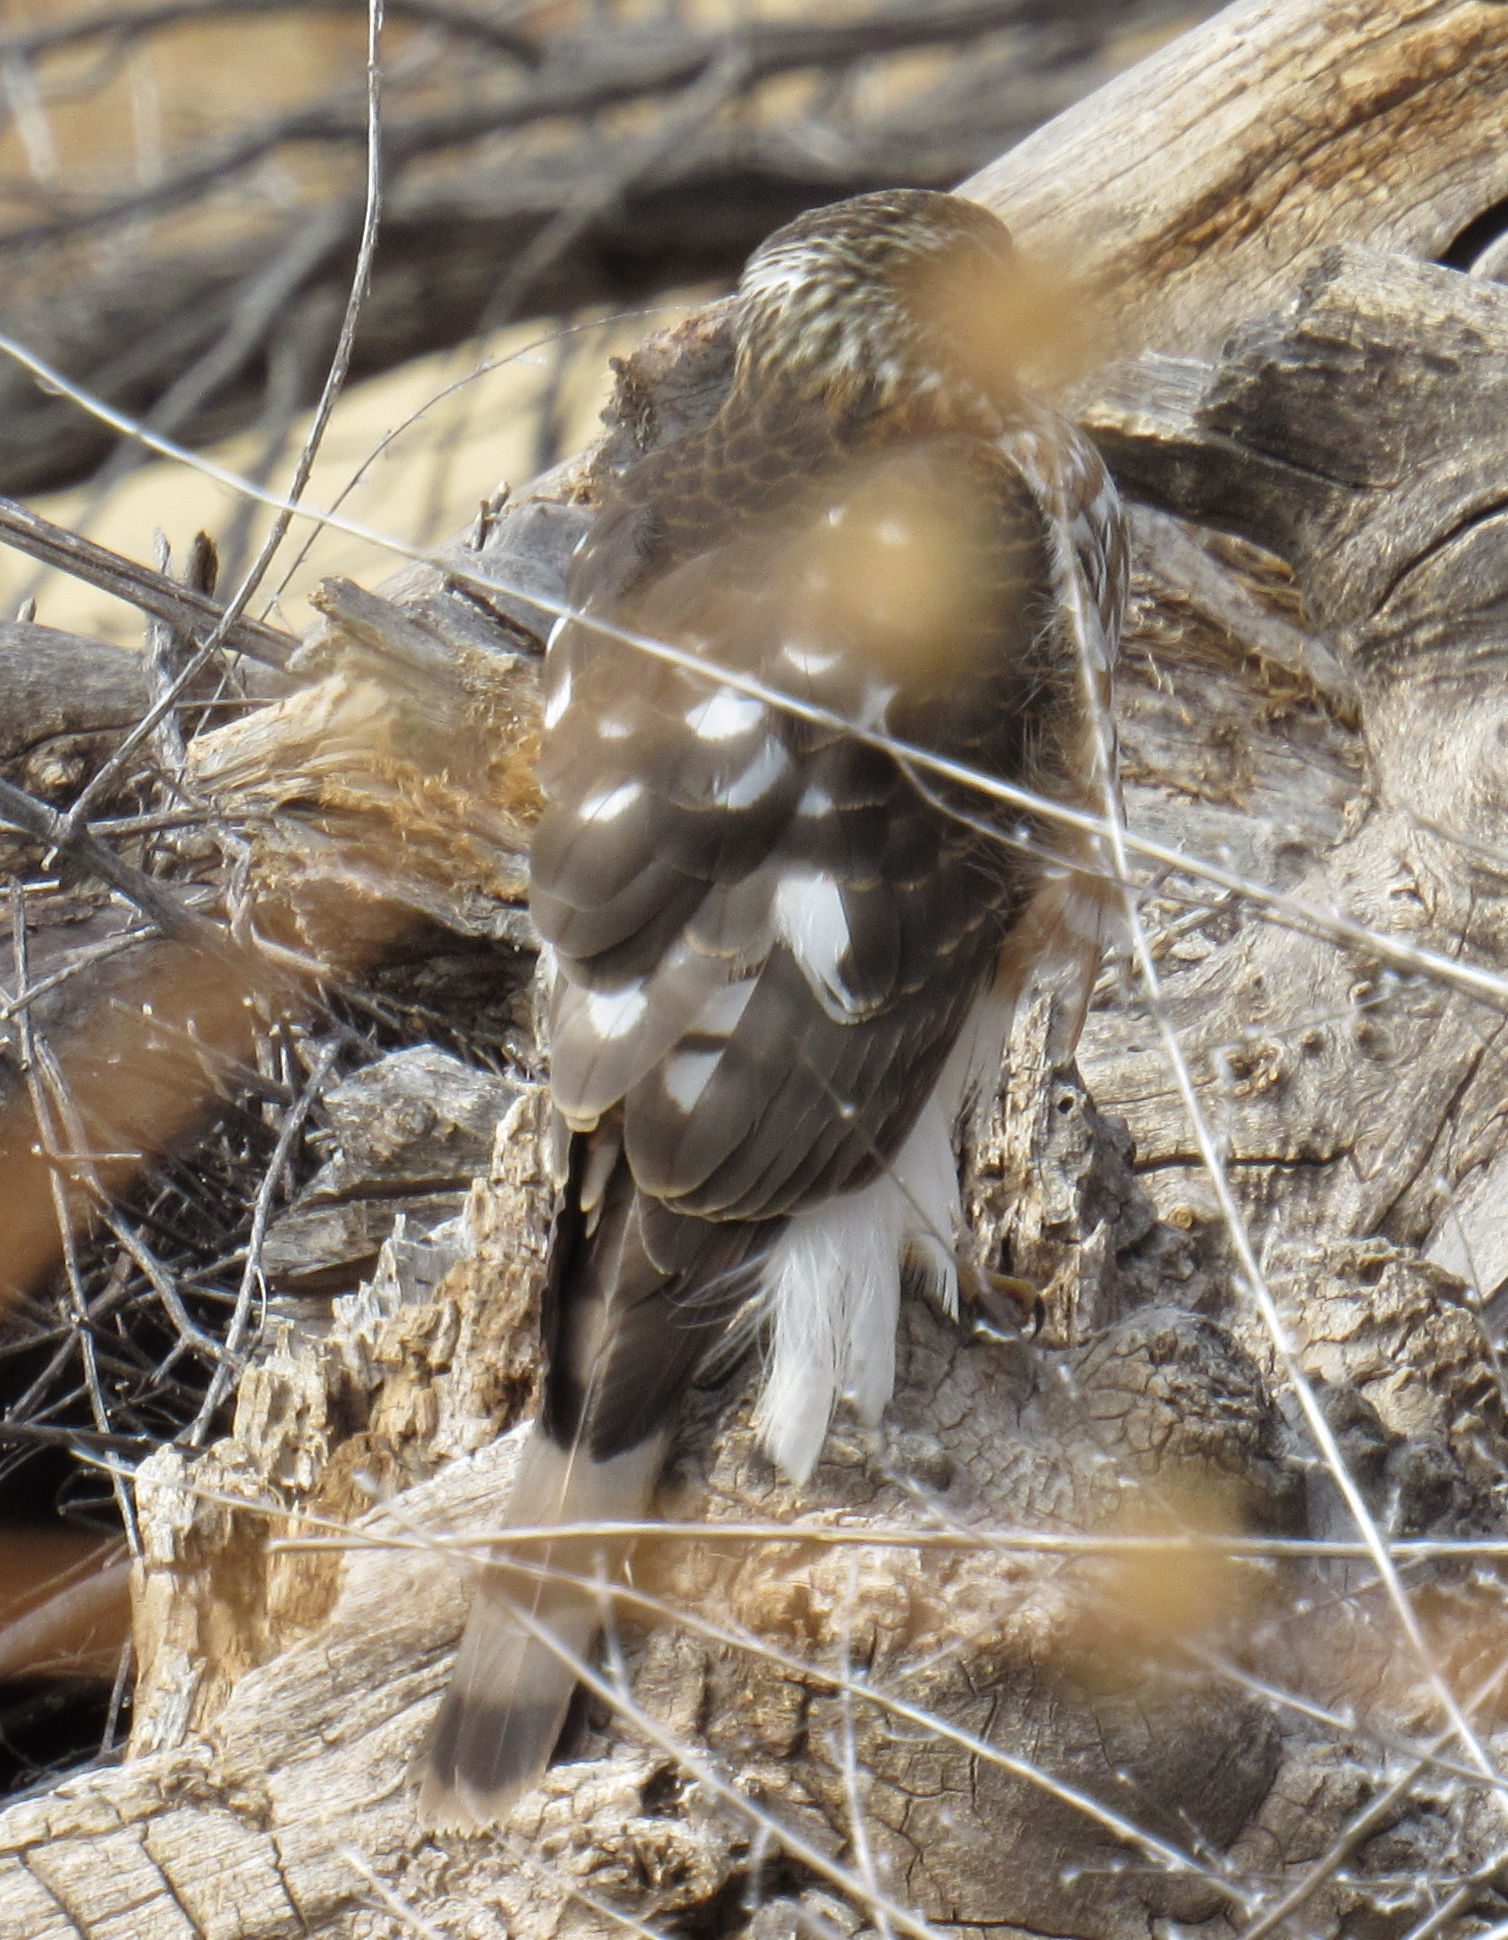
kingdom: Animalia
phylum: Chordata
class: Aves
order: Accipitriformes
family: Accipitridae
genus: Accipiter
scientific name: Accipiter striatus
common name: Sharp-shinned hawk
